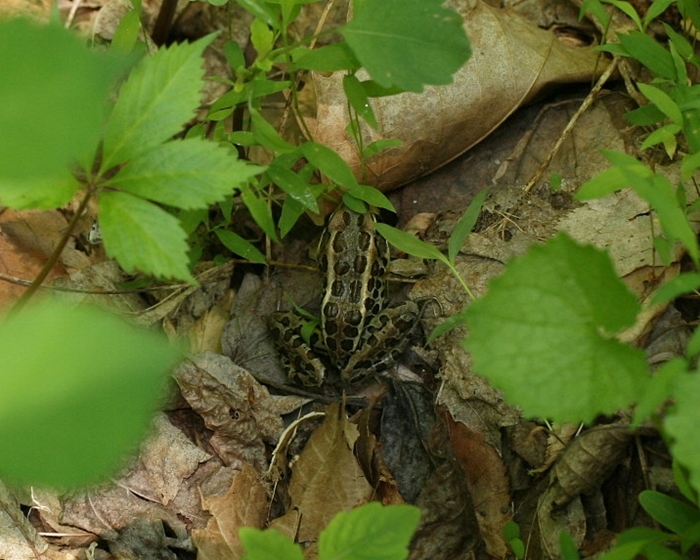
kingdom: Animalia
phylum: Chordata
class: Amphibia
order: Anura
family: Ranidae
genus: Lithobates
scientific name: Lithobates palustris
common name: Pickerel frog
